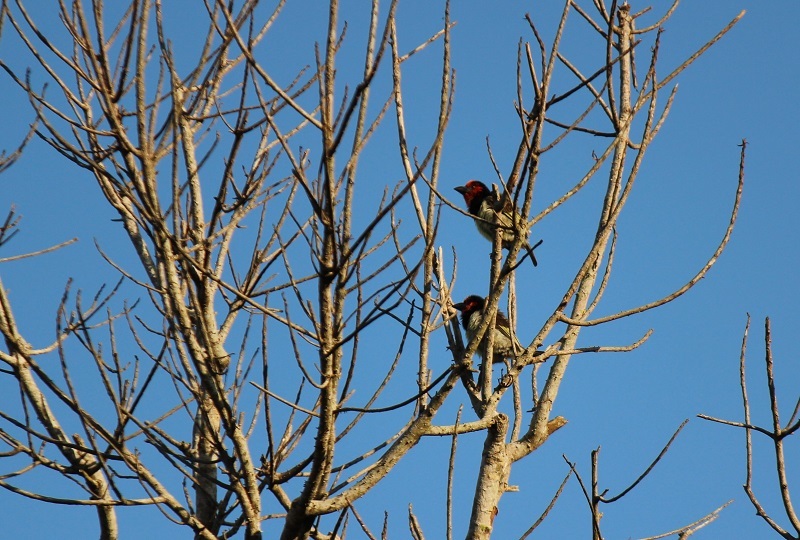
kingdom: Animalia
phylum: Chordata
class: Aves
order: Piciformes
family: Lybiidae
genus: Lybius
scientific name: Lybius torquatus
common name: Black-collared barbet
